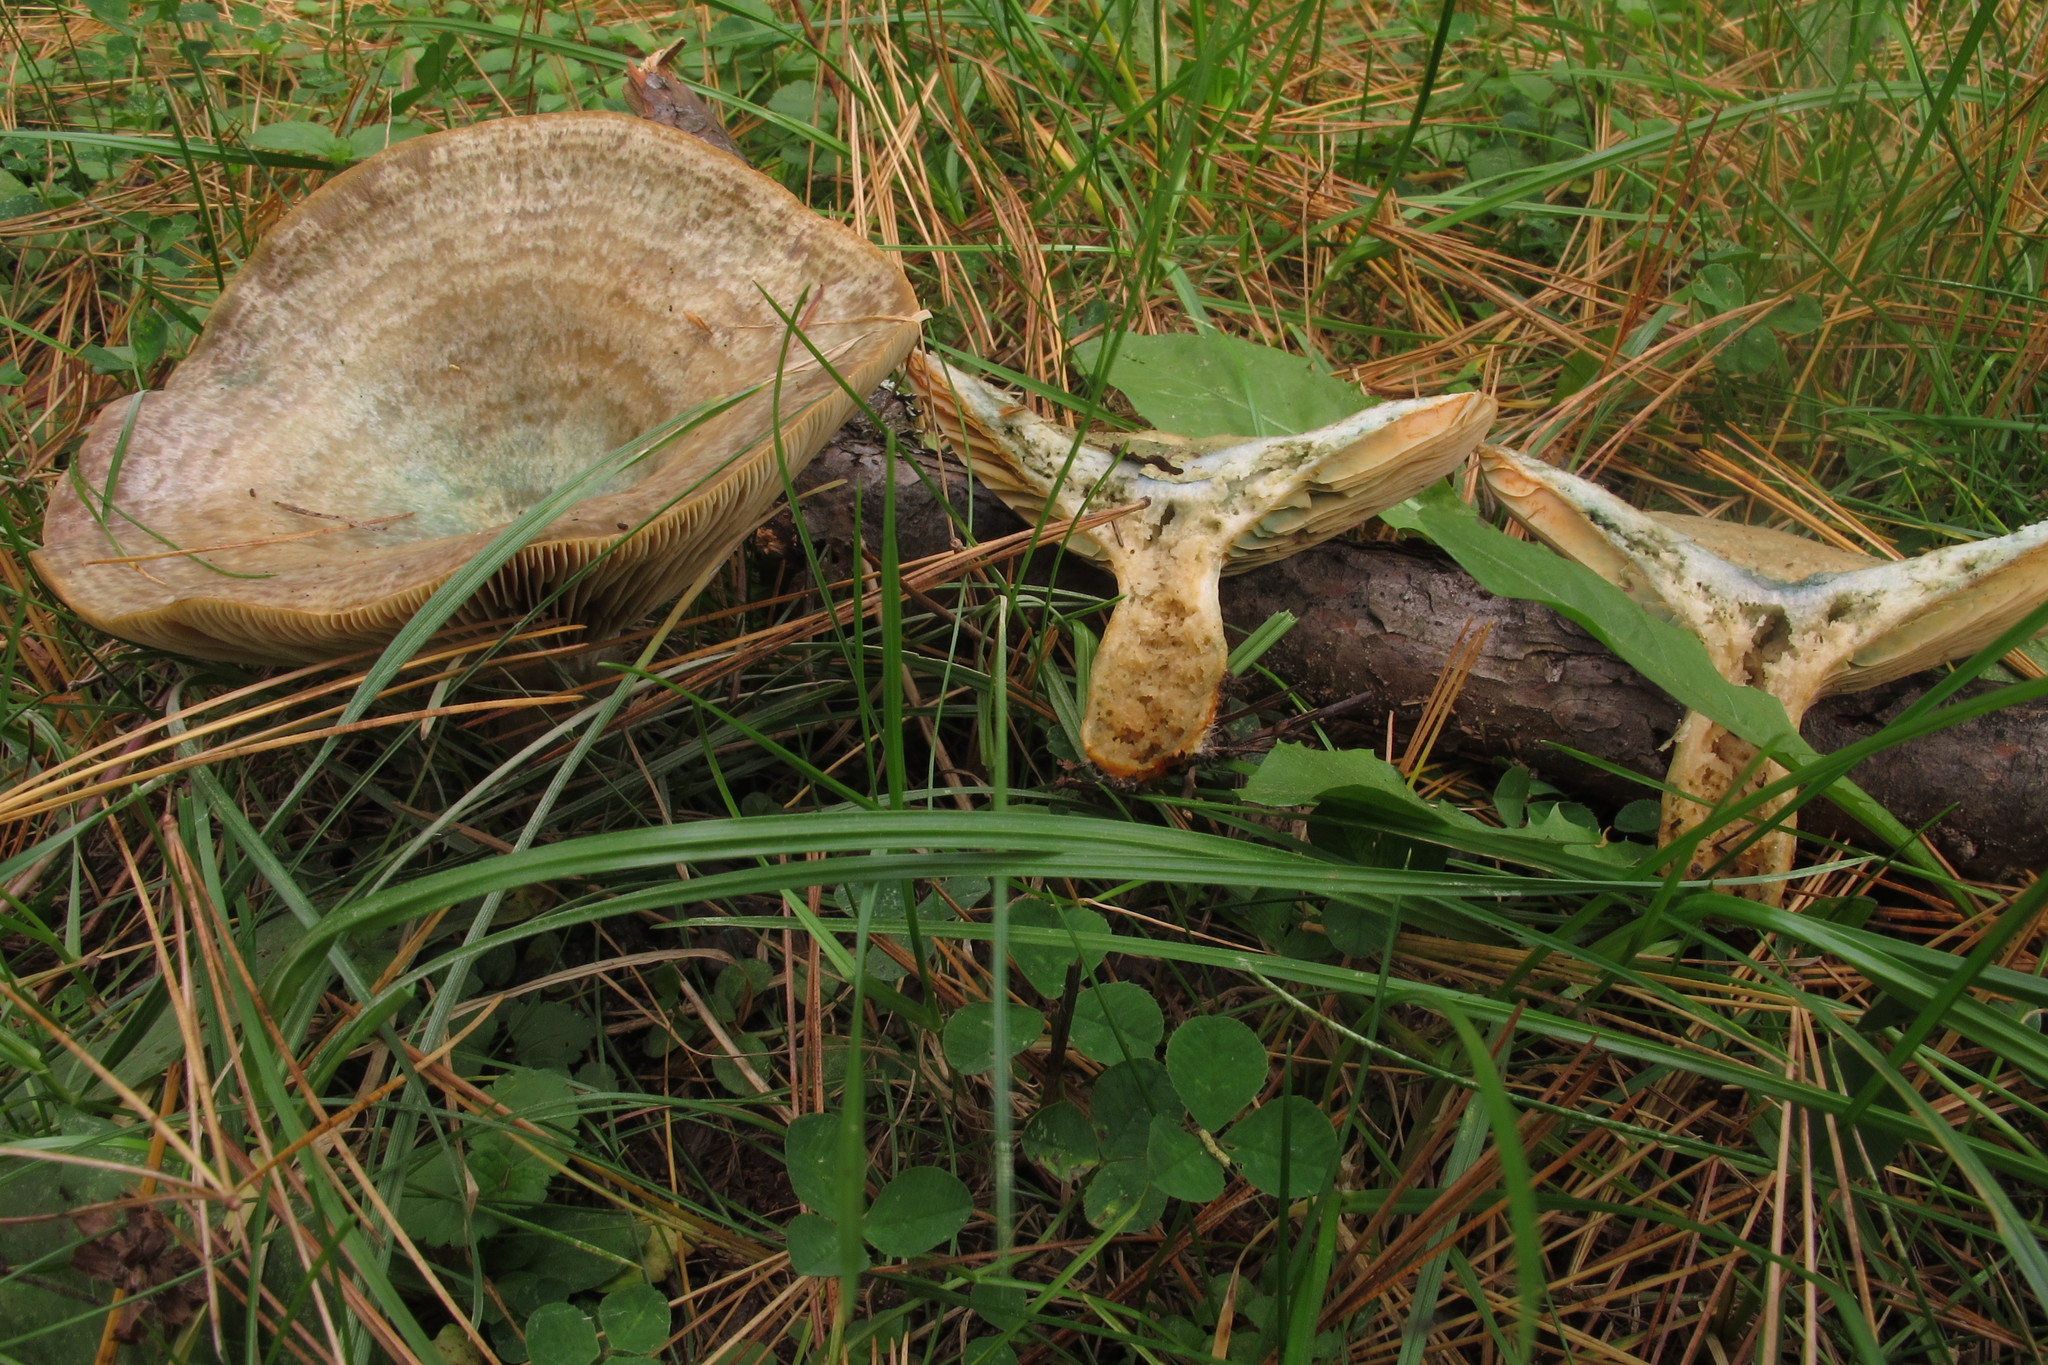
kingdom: Fungi
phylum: Basidiomycota
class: Agaricomycetes
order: Russulales
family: Russulaceae
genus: Lactarius
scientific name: Lactarius chelidonium
